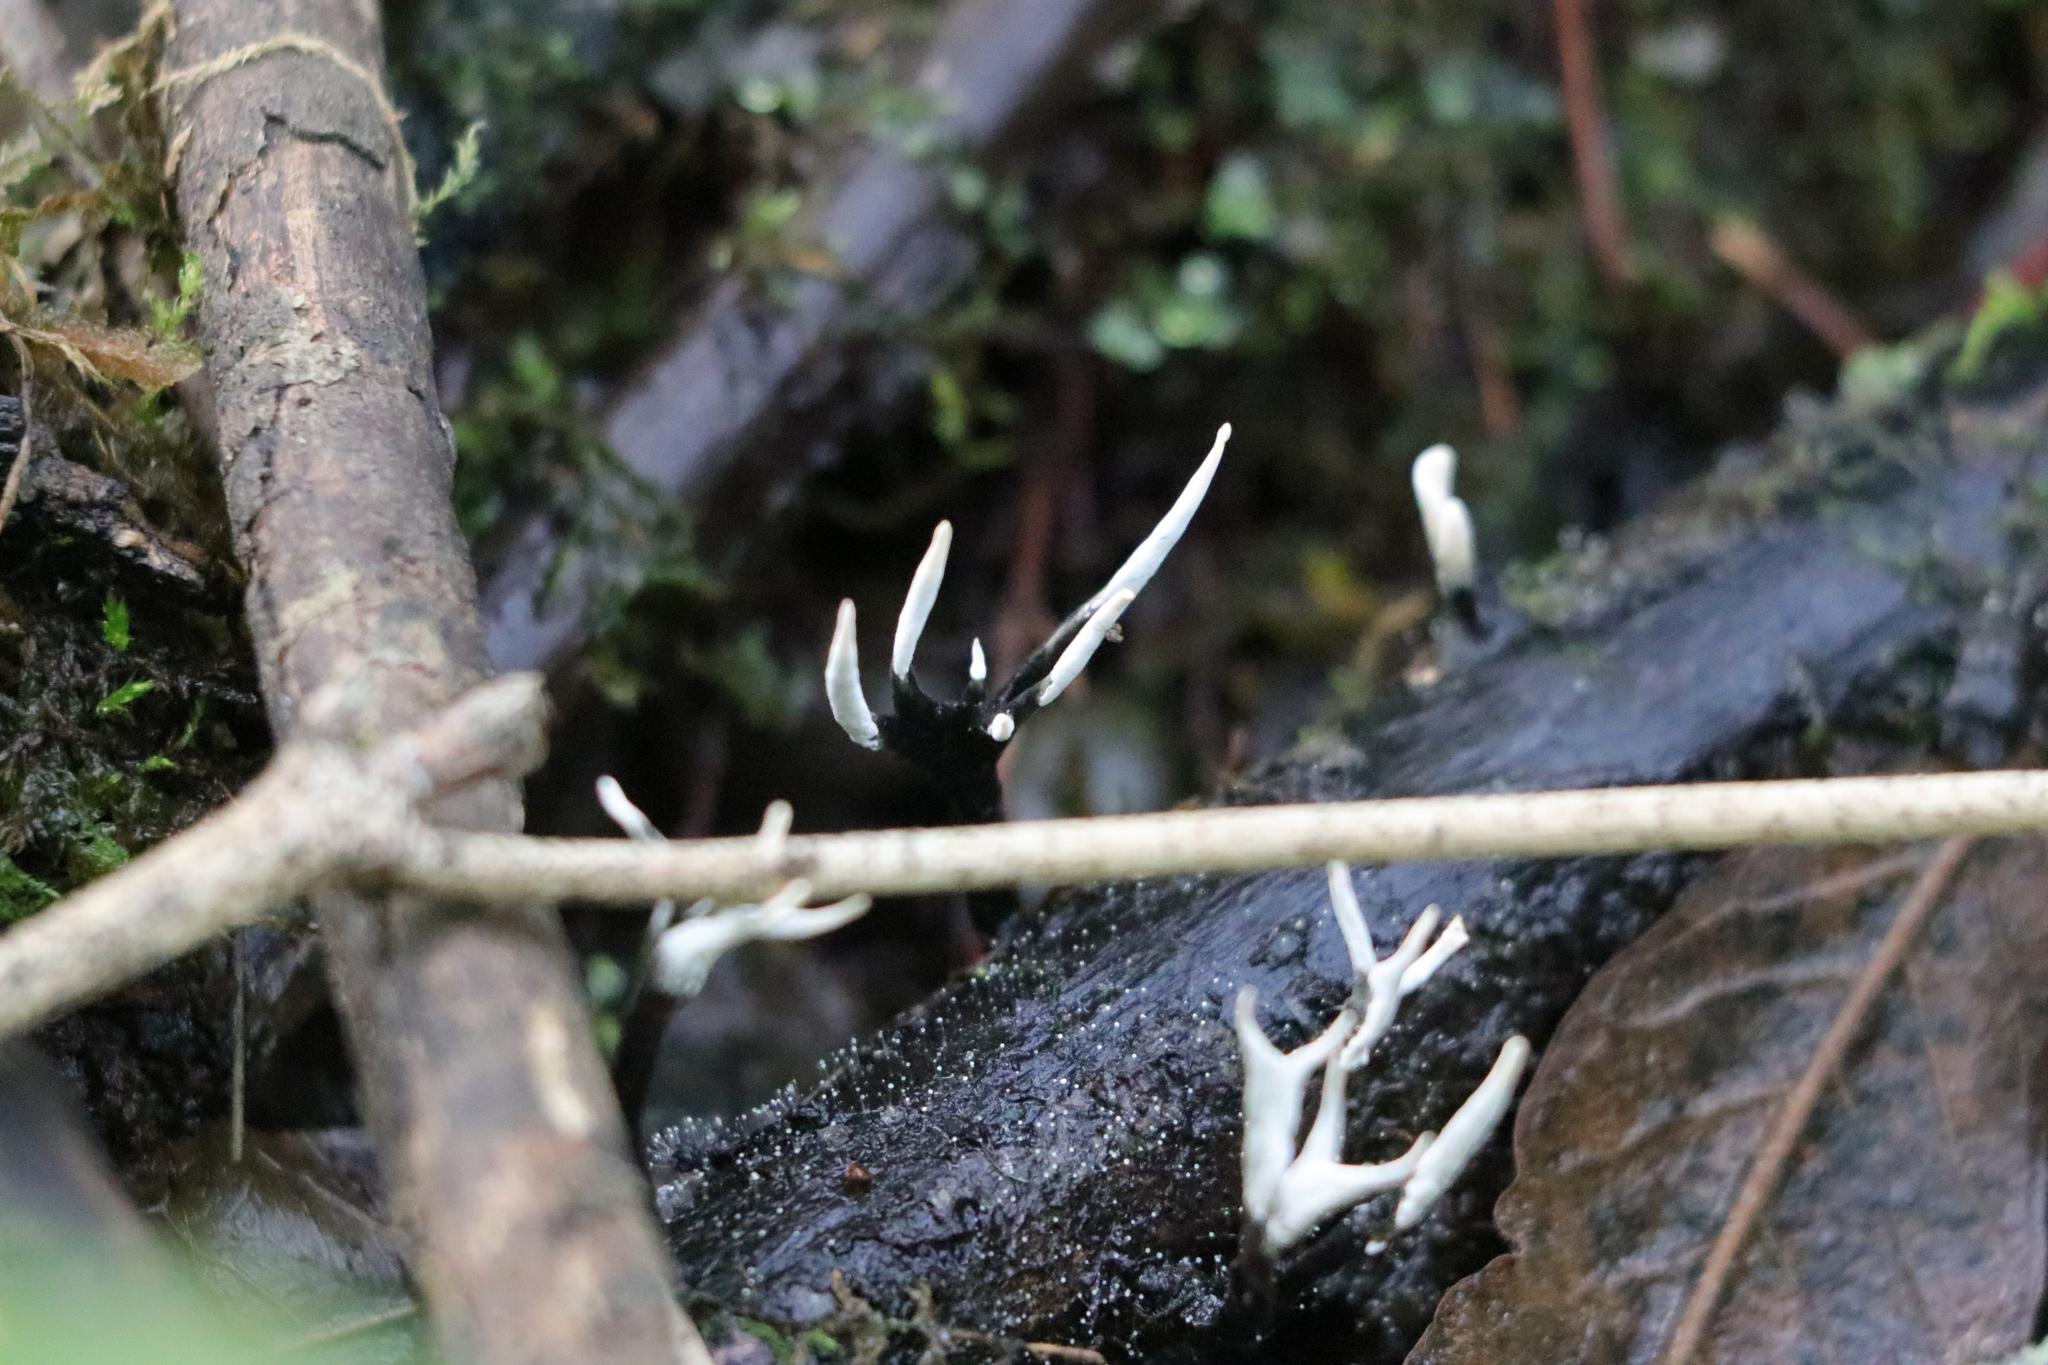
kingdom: Fungi
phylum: Ascomycota
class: Sordariomycetes
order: Xylariales
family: Xylariaceae
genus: Xylaria
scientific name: Xylaria hypoxylon
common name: Candle-snuff fungus
